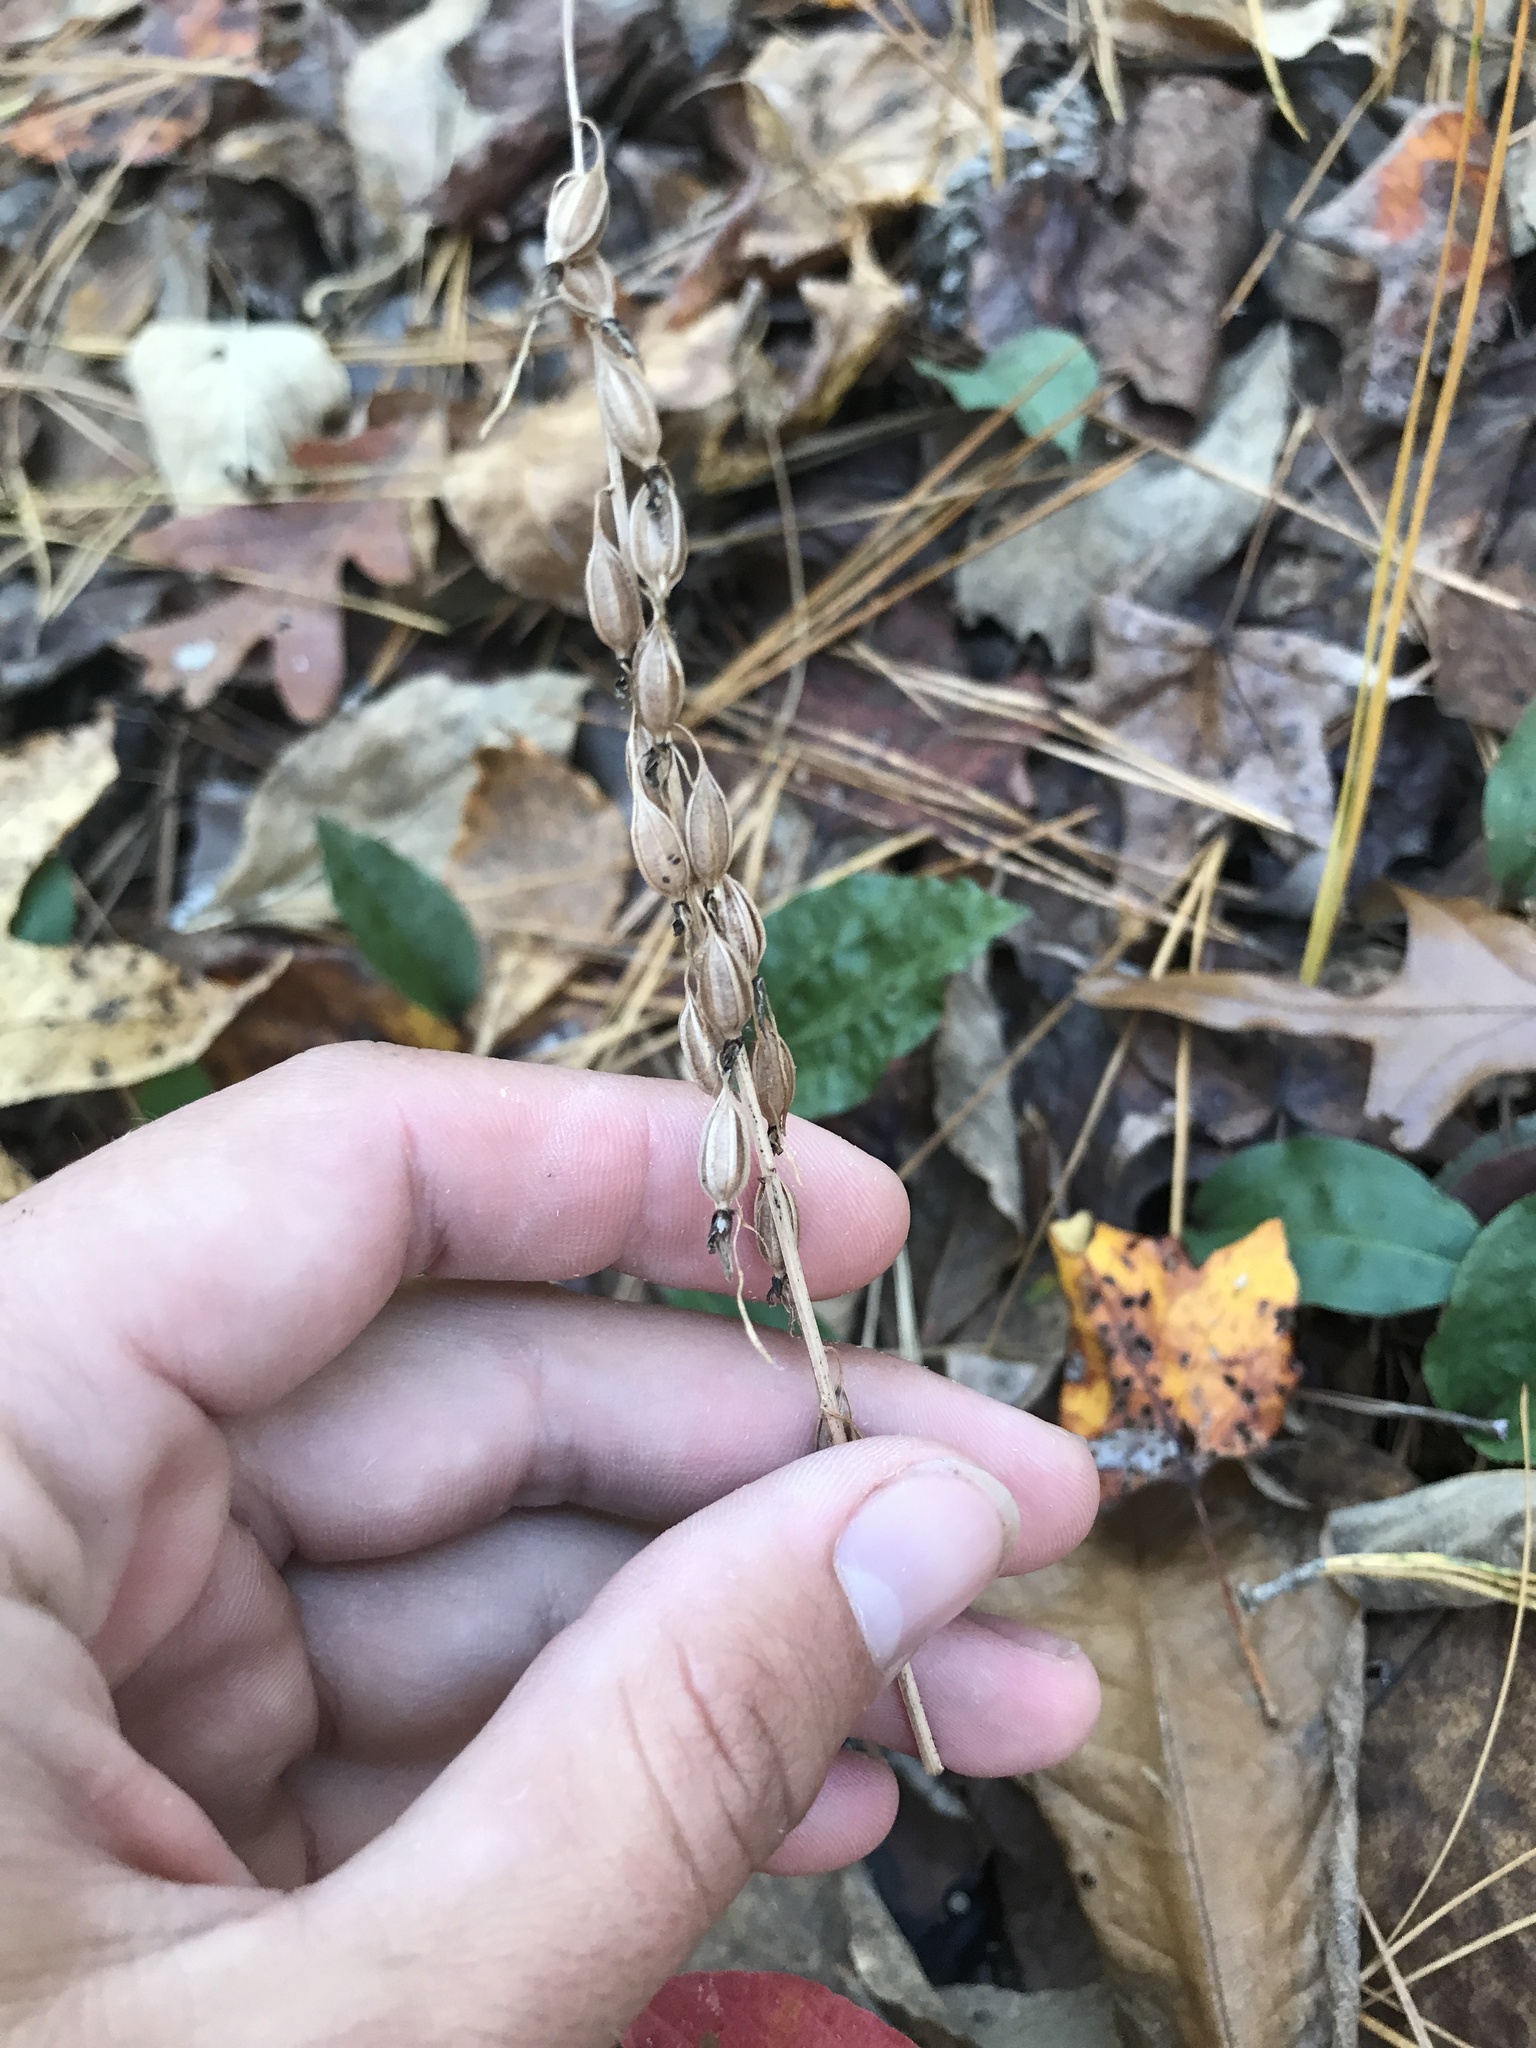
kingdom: Plantae
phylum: Tracheophyta
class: Liliopsida
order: Asparagales
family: Orchidaceae
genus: Tipularia
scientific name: Tipularia discolor
